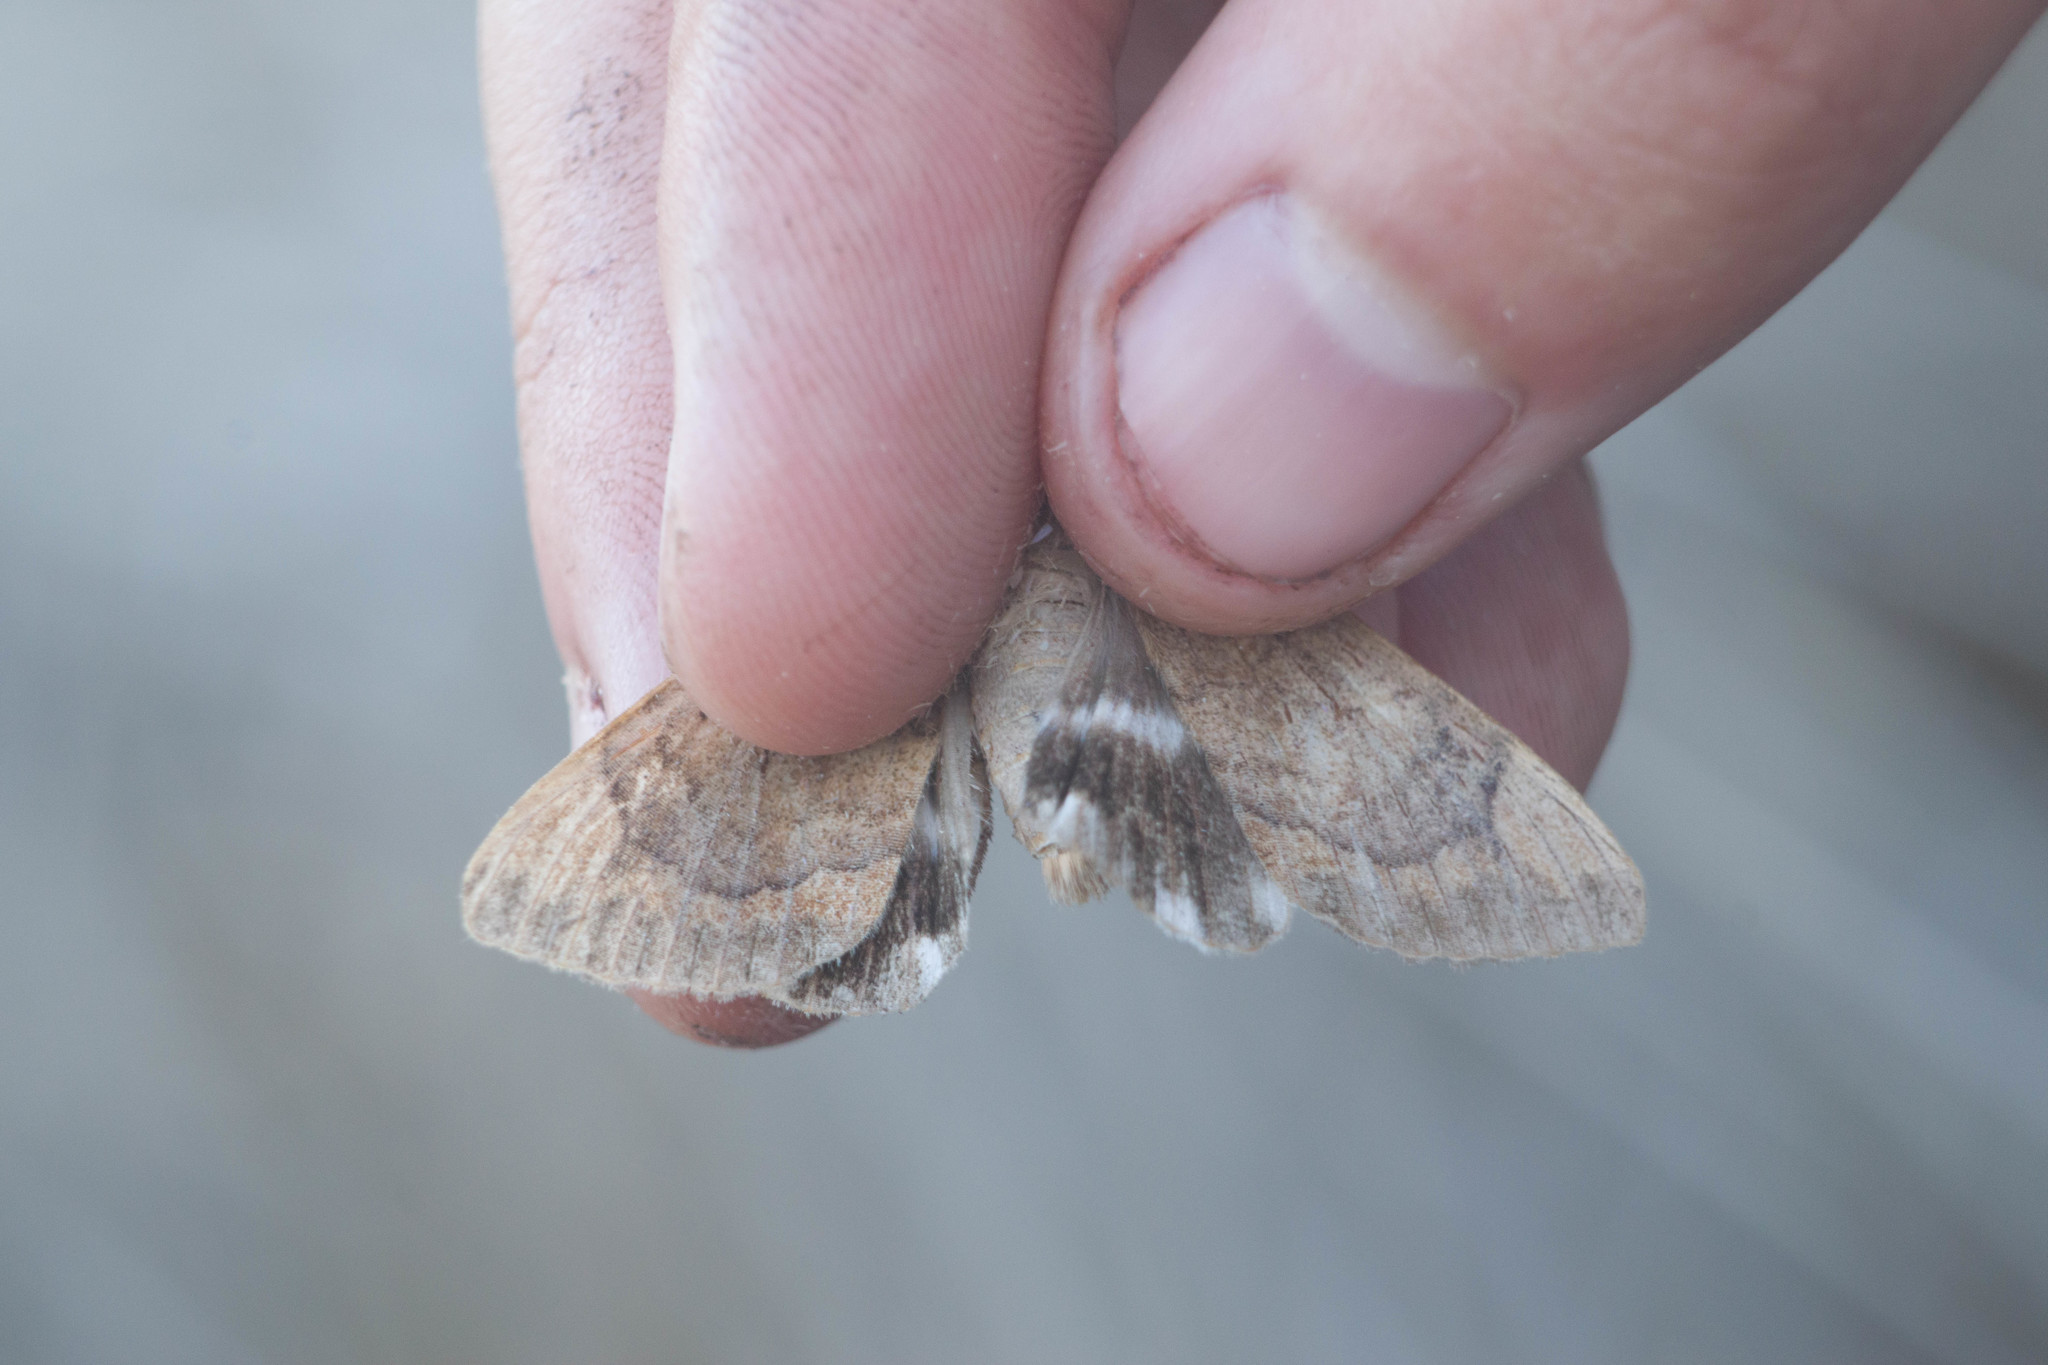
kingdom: Animalia
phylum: Arthropoda
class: Insecta
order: Lepidoptera
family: Erebidae
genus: Achaea
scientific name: Achaea janata
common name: Croton caterpillar
